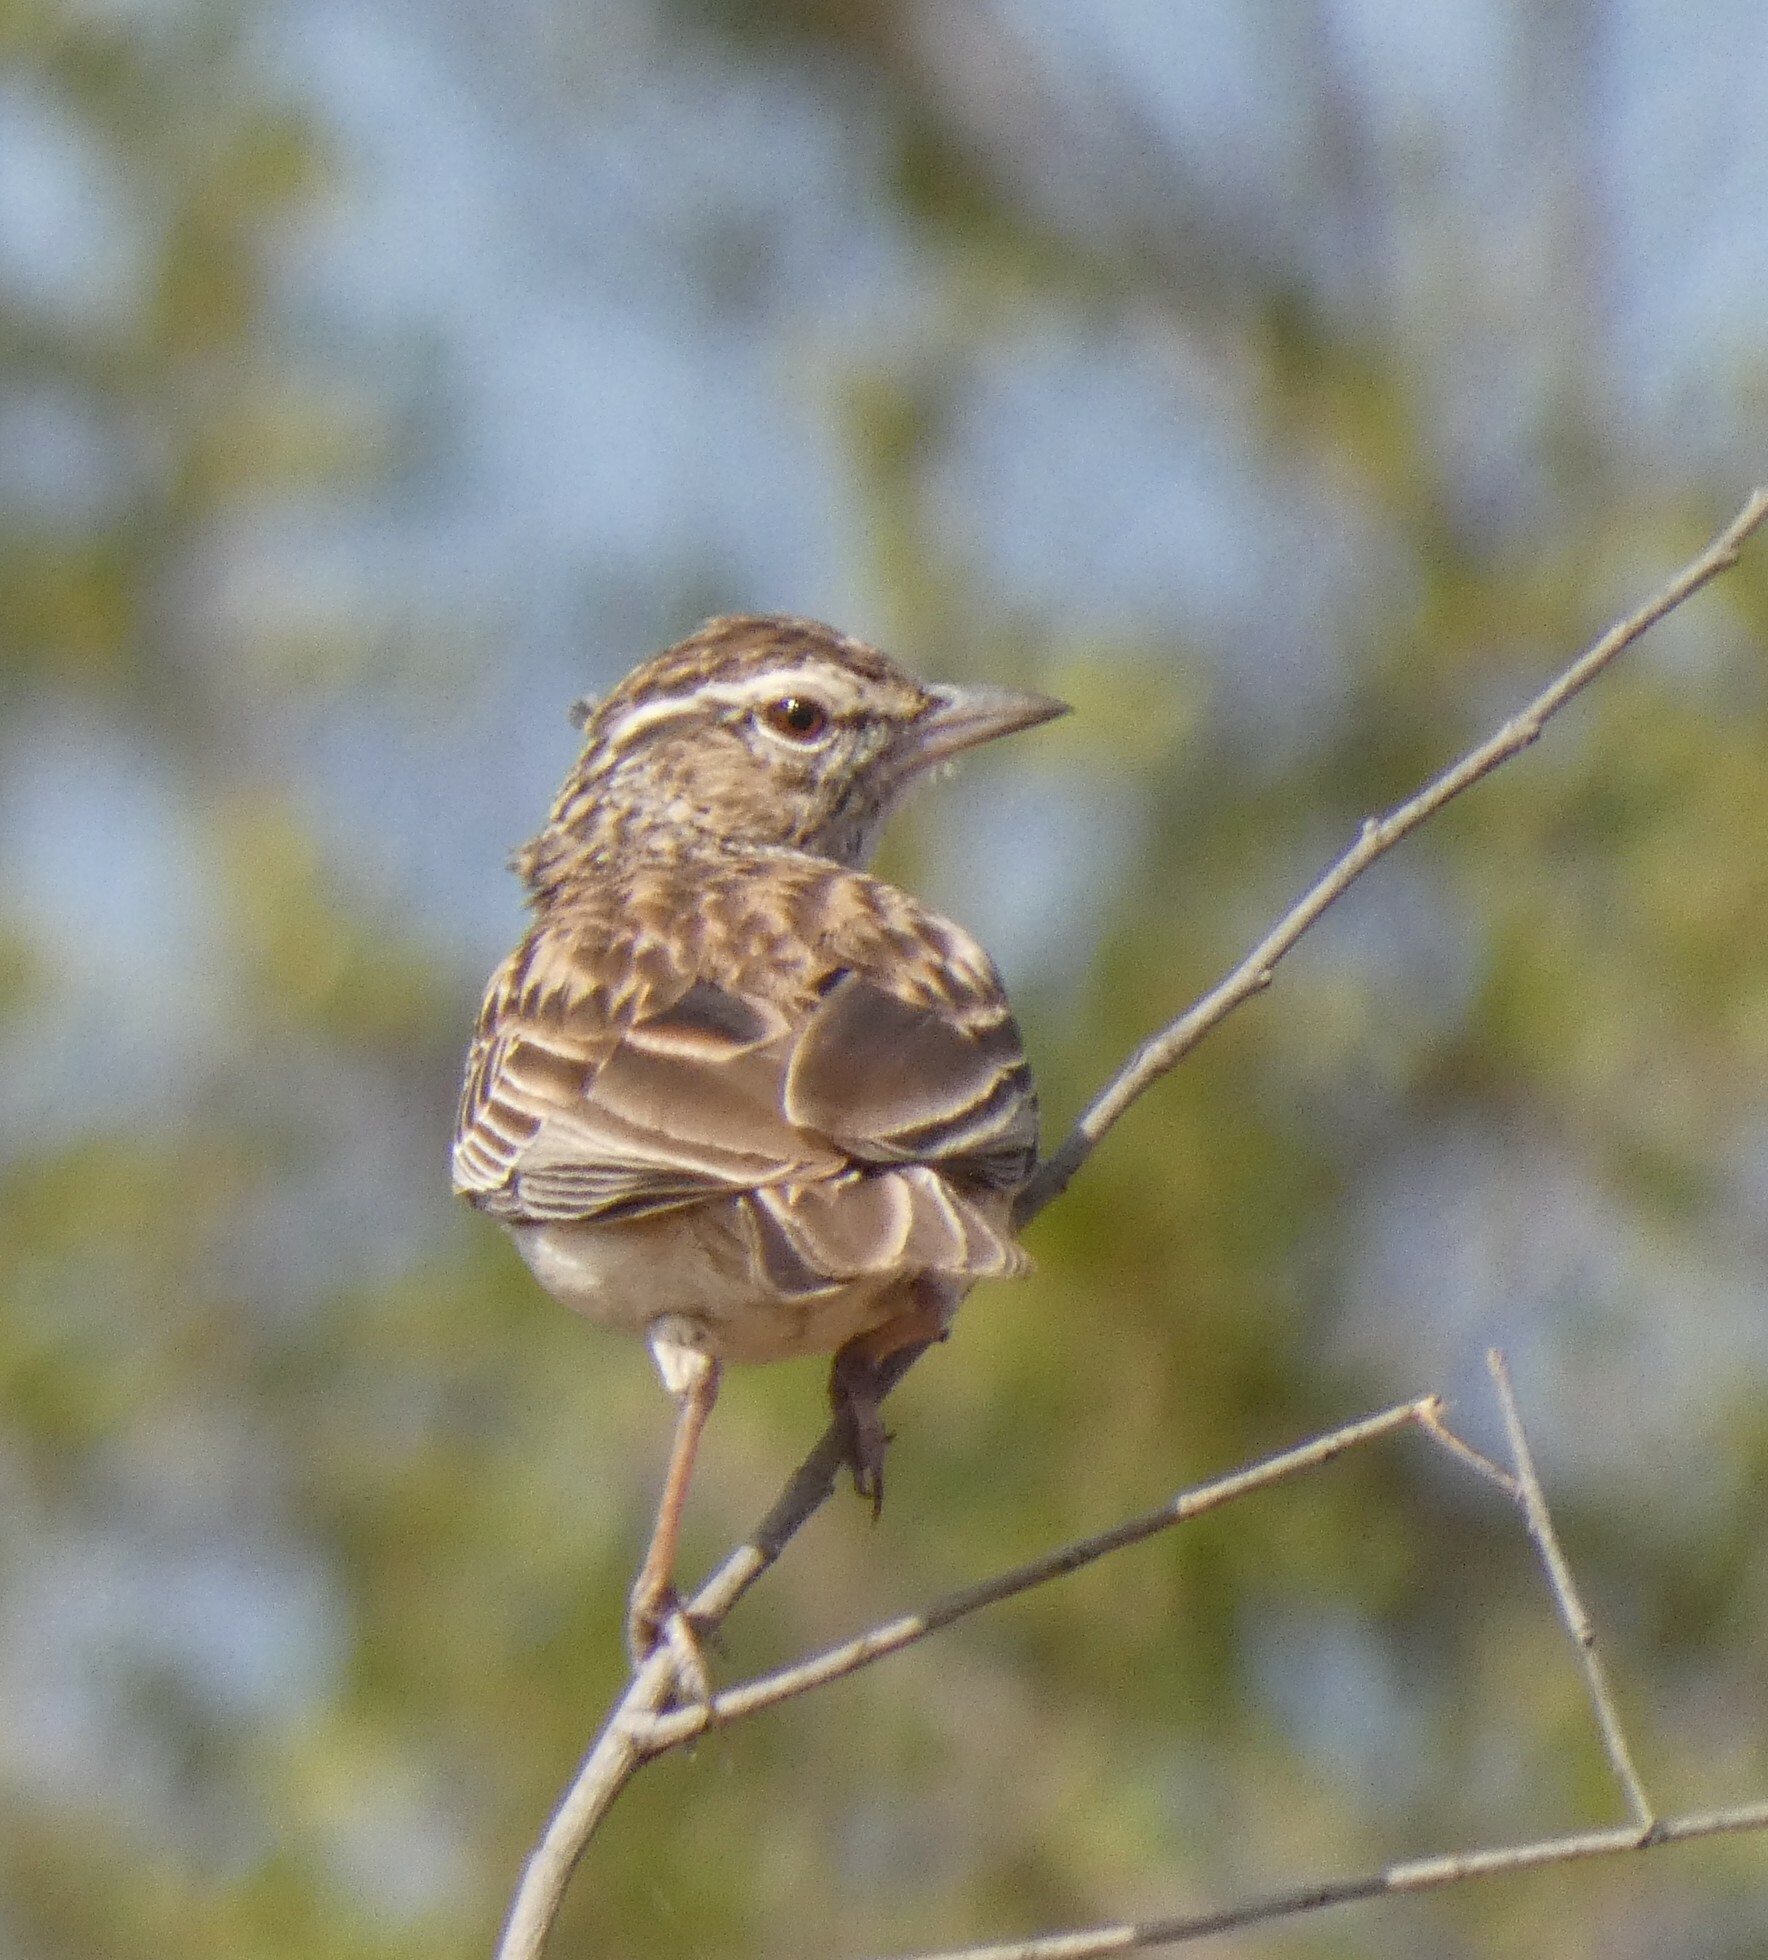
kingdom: Animalia
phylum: Chordata
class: Aves
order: Passeriformes
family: Alaudidae
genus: Calendulauda
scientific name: Calendulauda sabota
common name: Sabota lark
